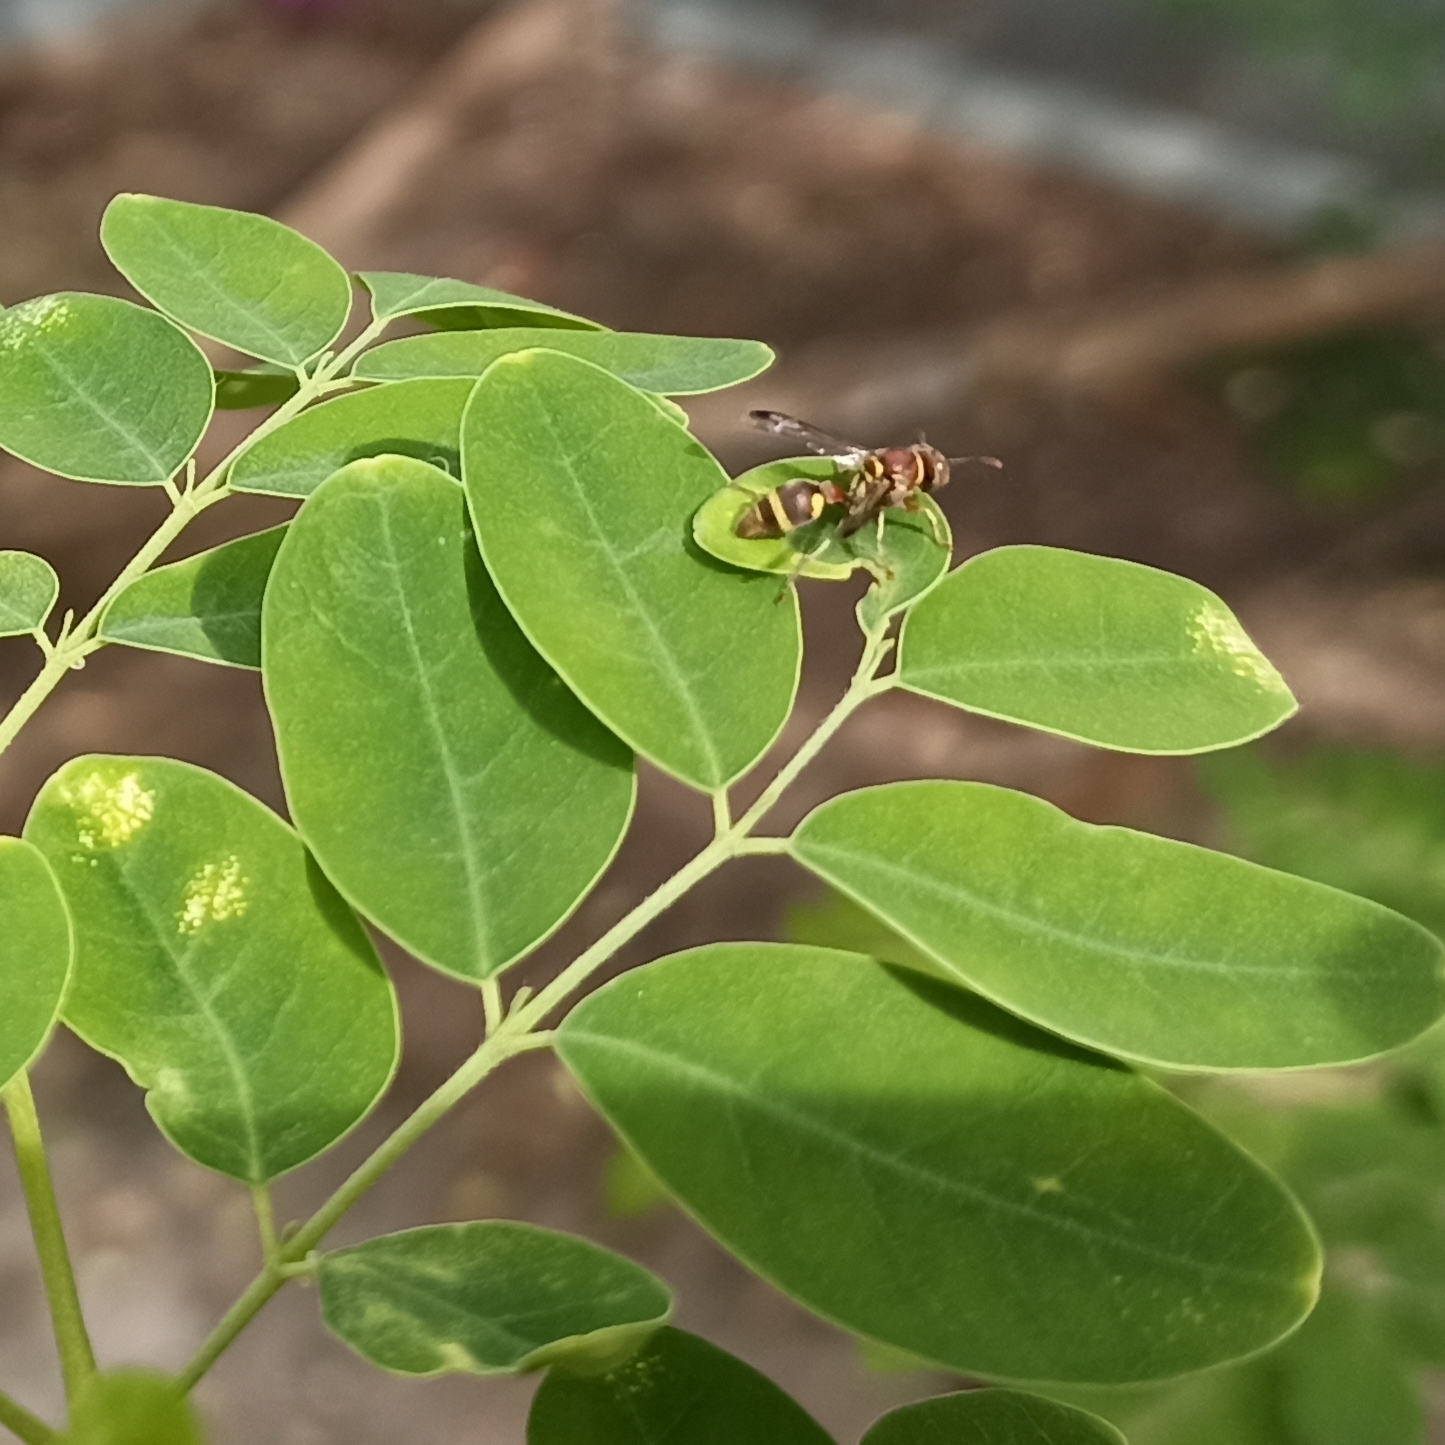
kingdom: Animalia
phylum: Arthropoda
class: Insecta
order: Hymenoptera
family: Vespidae
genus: Ropalidia
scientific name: Ropalidia jacobsoni
